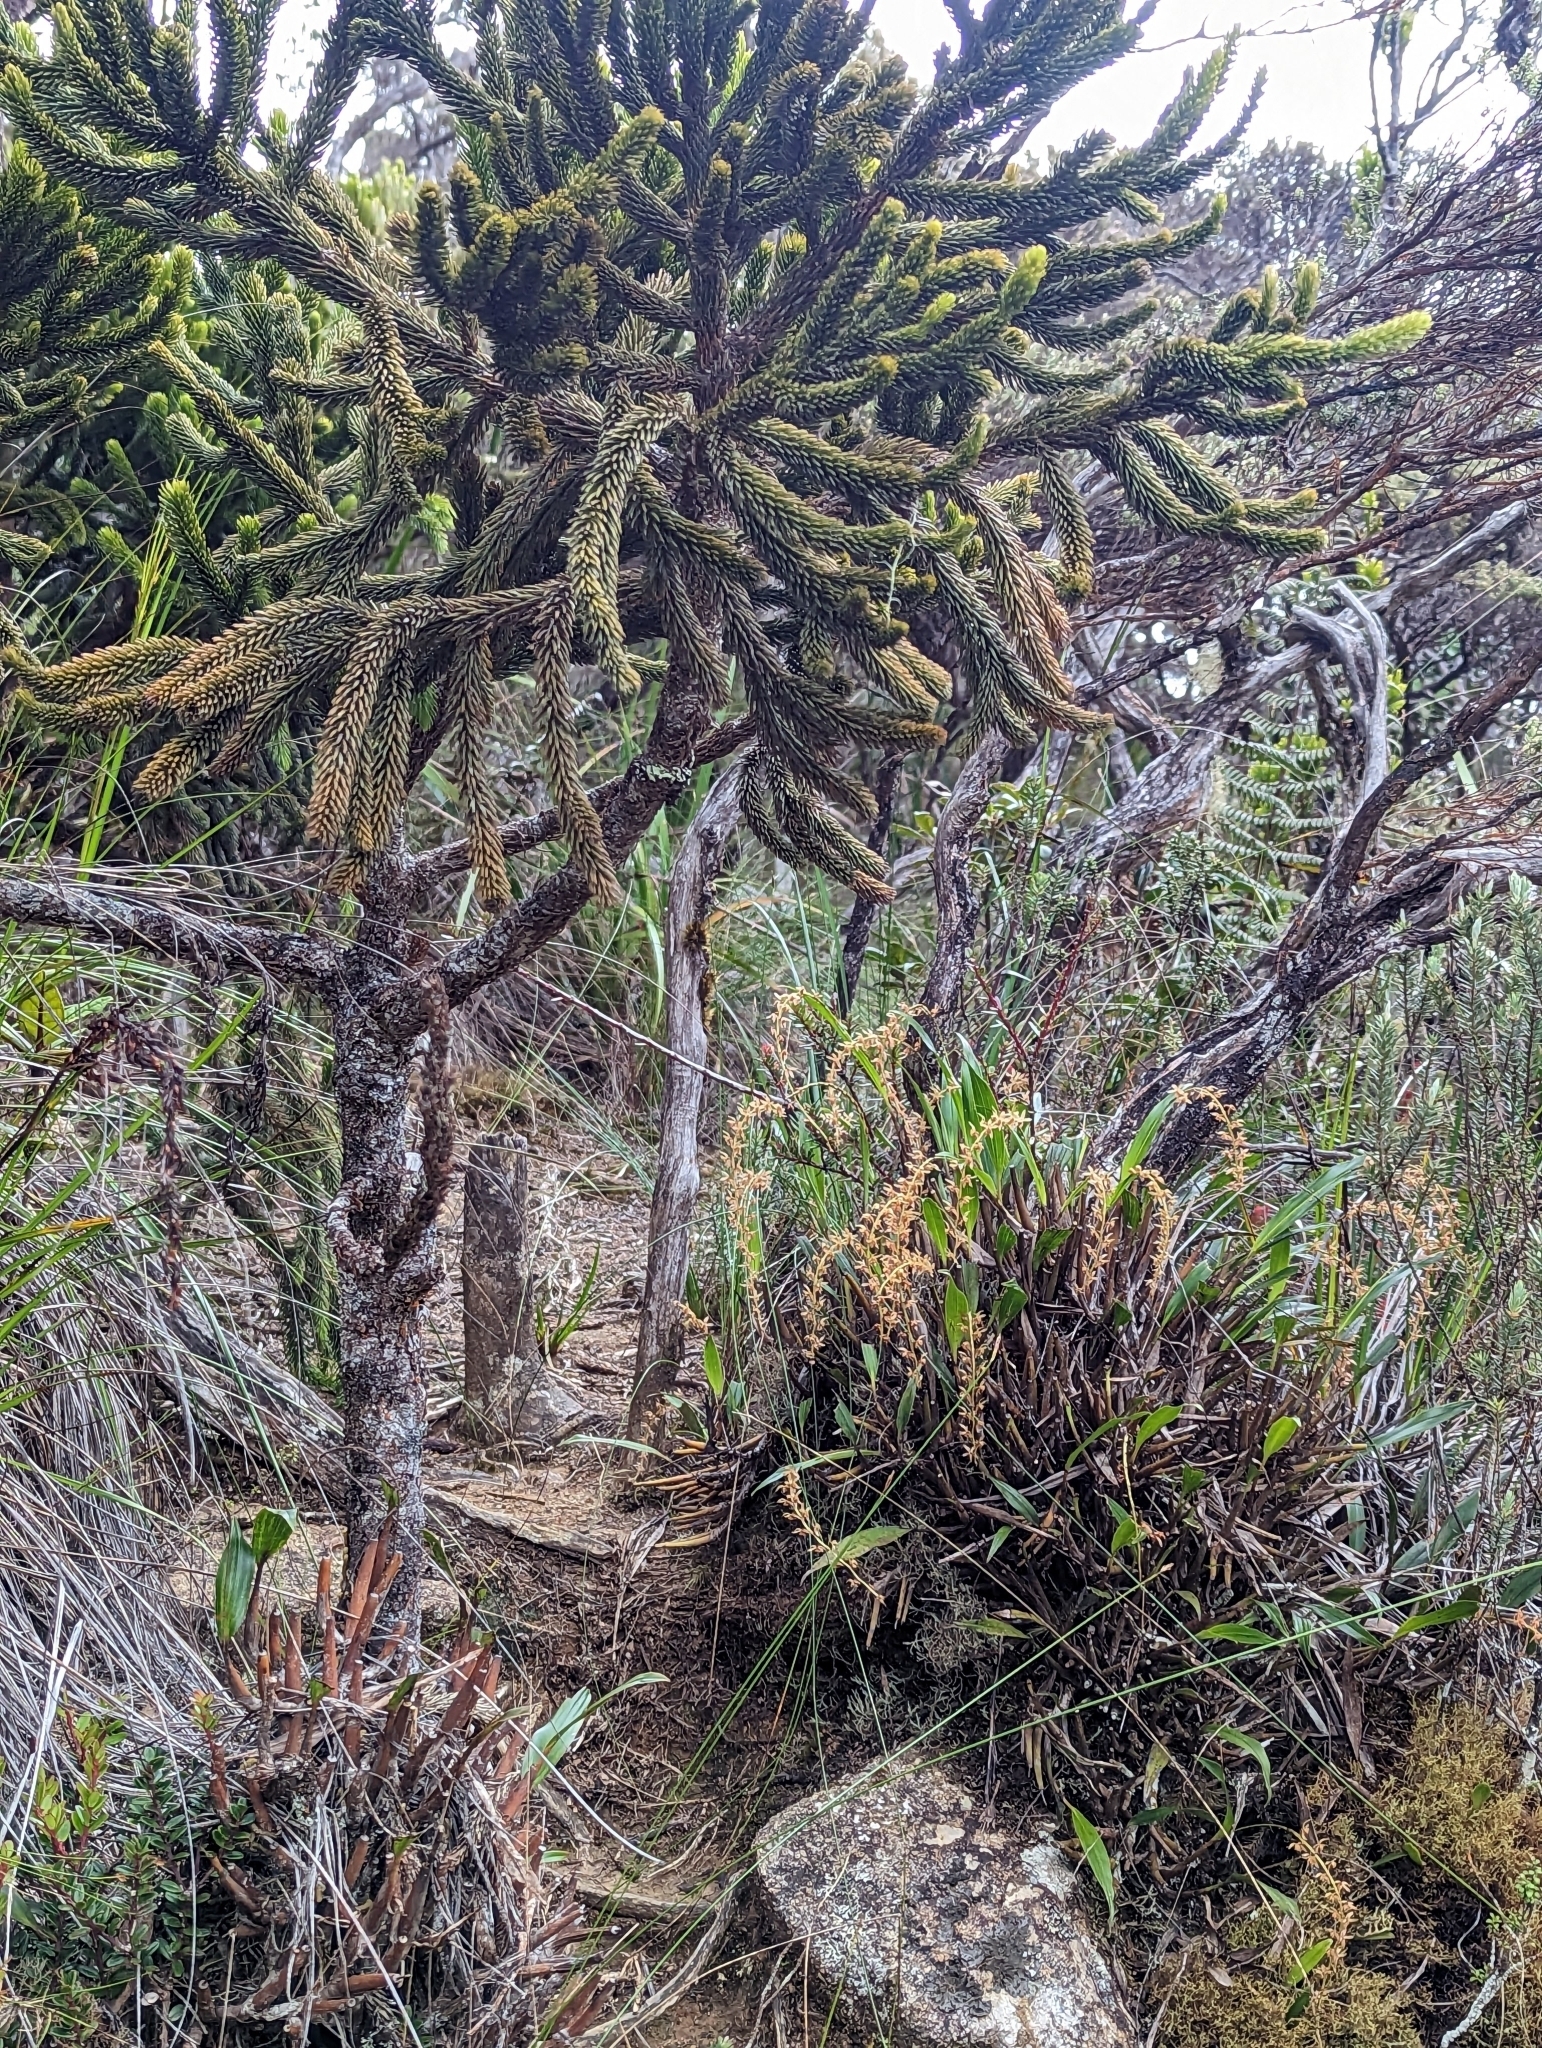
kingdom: Plantae
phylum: Tracheophyta
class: Pinopsida
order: Pinales
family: Podocarpaceae
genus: Dacrydium
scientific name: Dacrydium gibbsiae
